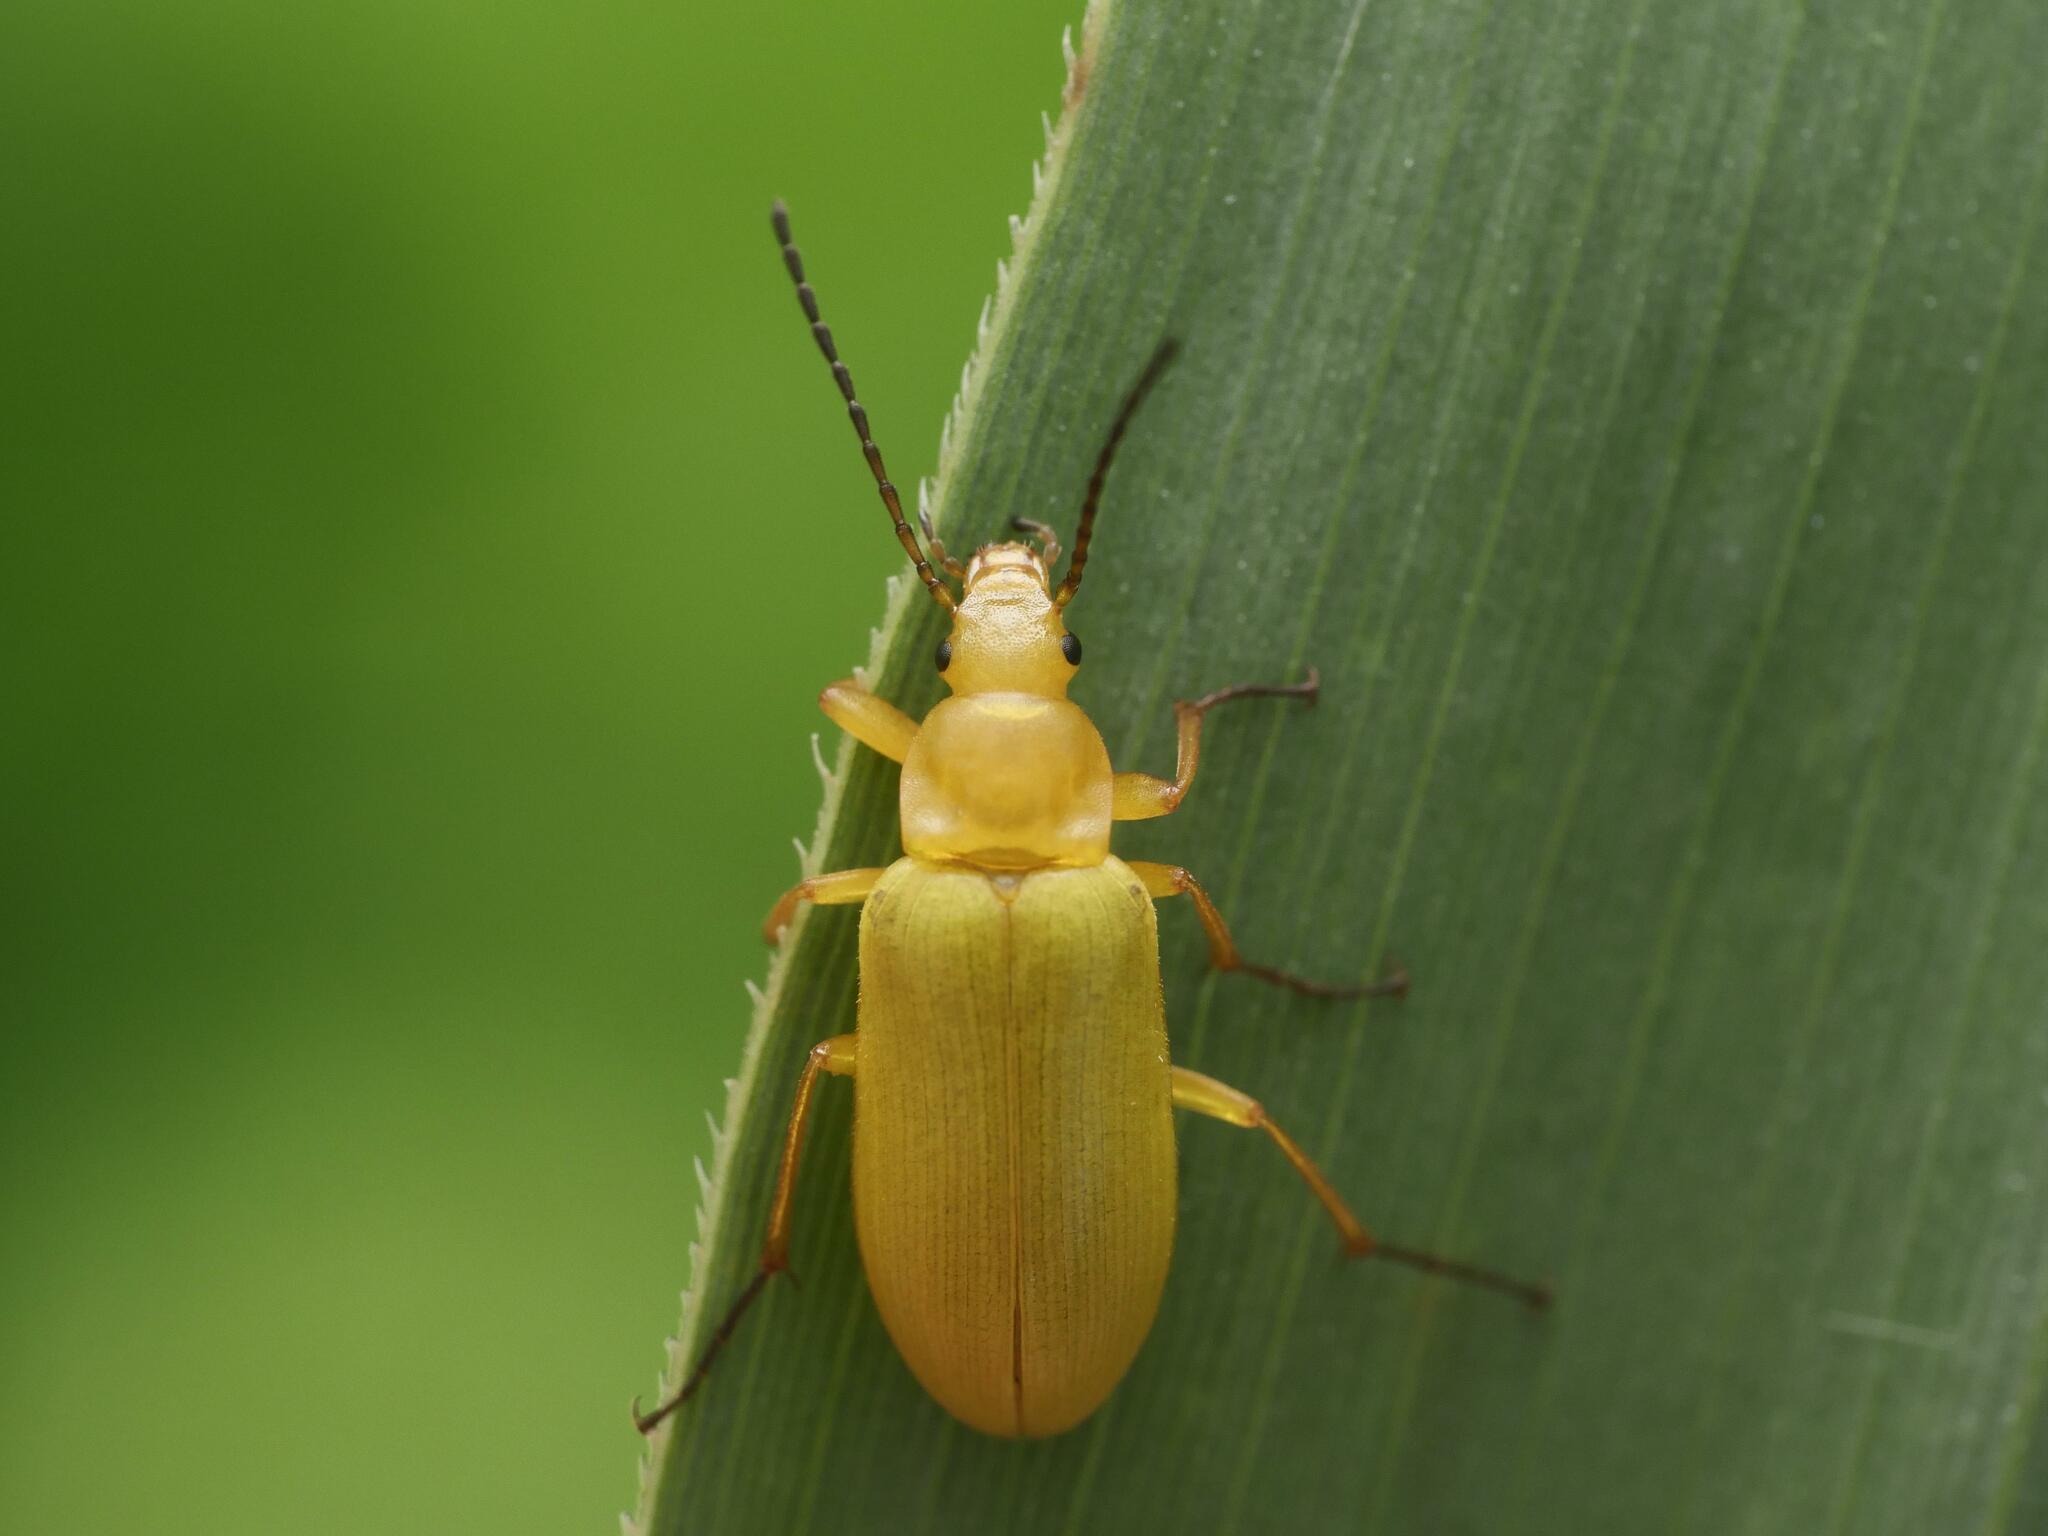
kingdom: Animalia
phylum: Arthropoda
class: Insecta
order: Coleoptera
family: Tenebrionidae
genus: Cteniopus
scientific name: Cteniopus sulphureus
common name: Sulphur beetle
